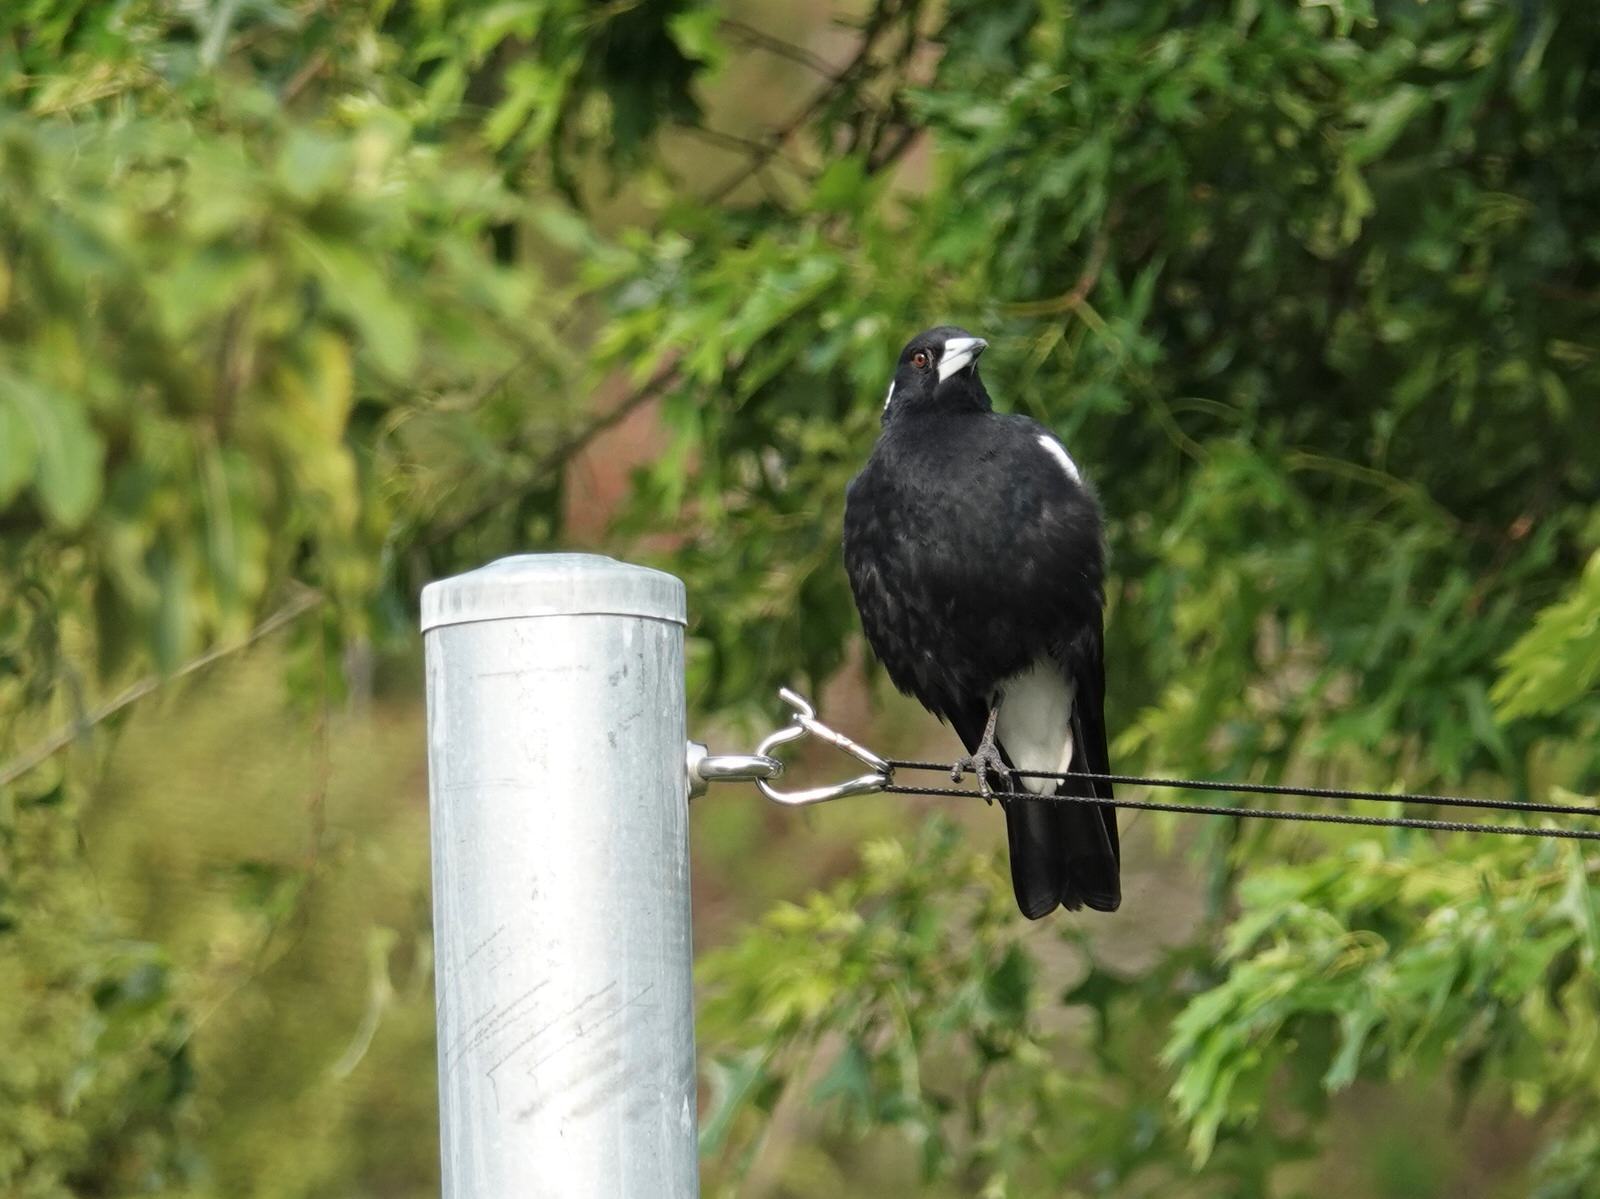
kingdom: Animalia
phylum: Chordata
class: Aves
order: Passeriformes
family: Cracticidae
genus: Gymnorhina
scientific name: Gymnorhina tibicen
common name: Australian magpie
